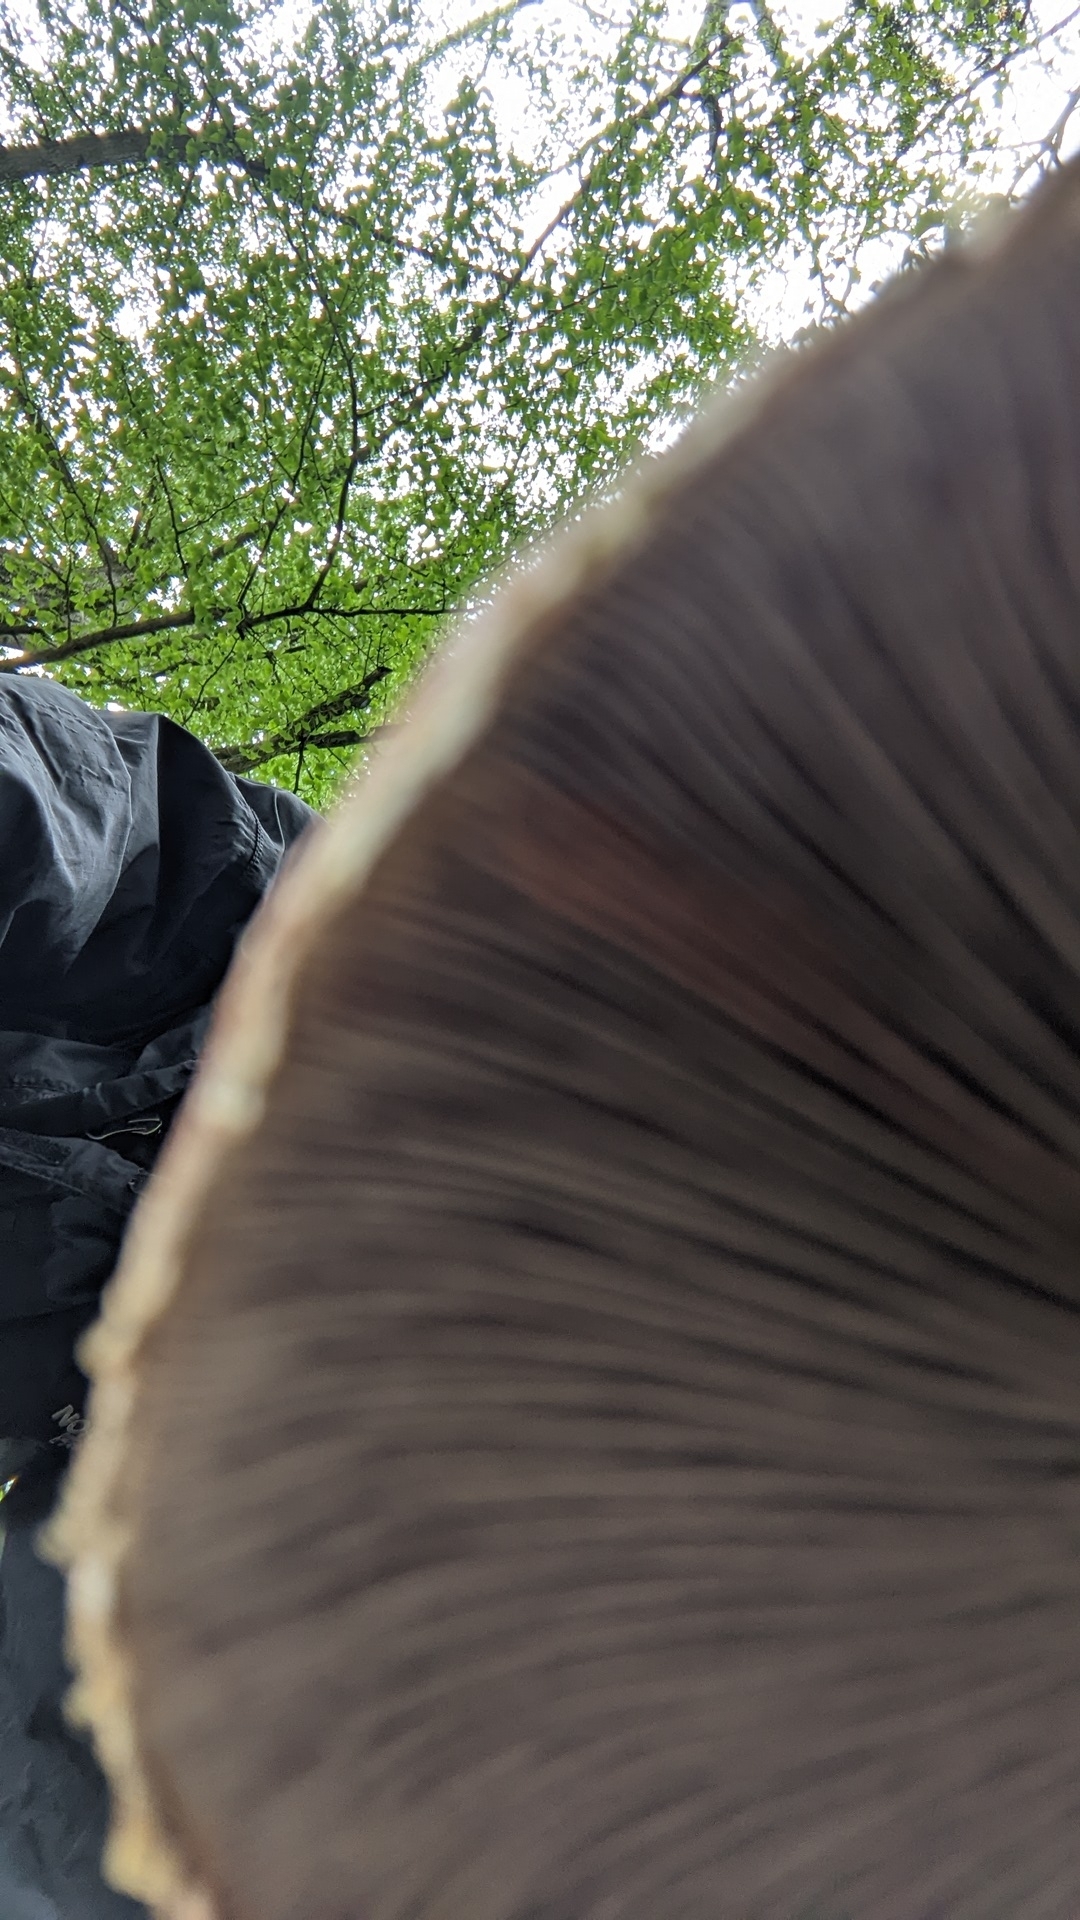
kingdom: Fungi
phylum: Basidiomycota
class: Agaricomycetes
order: Agaricales
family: Strophariaceae
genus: Stropharia
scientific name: Stropharia rugosoannulata
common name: Wine roundhead
